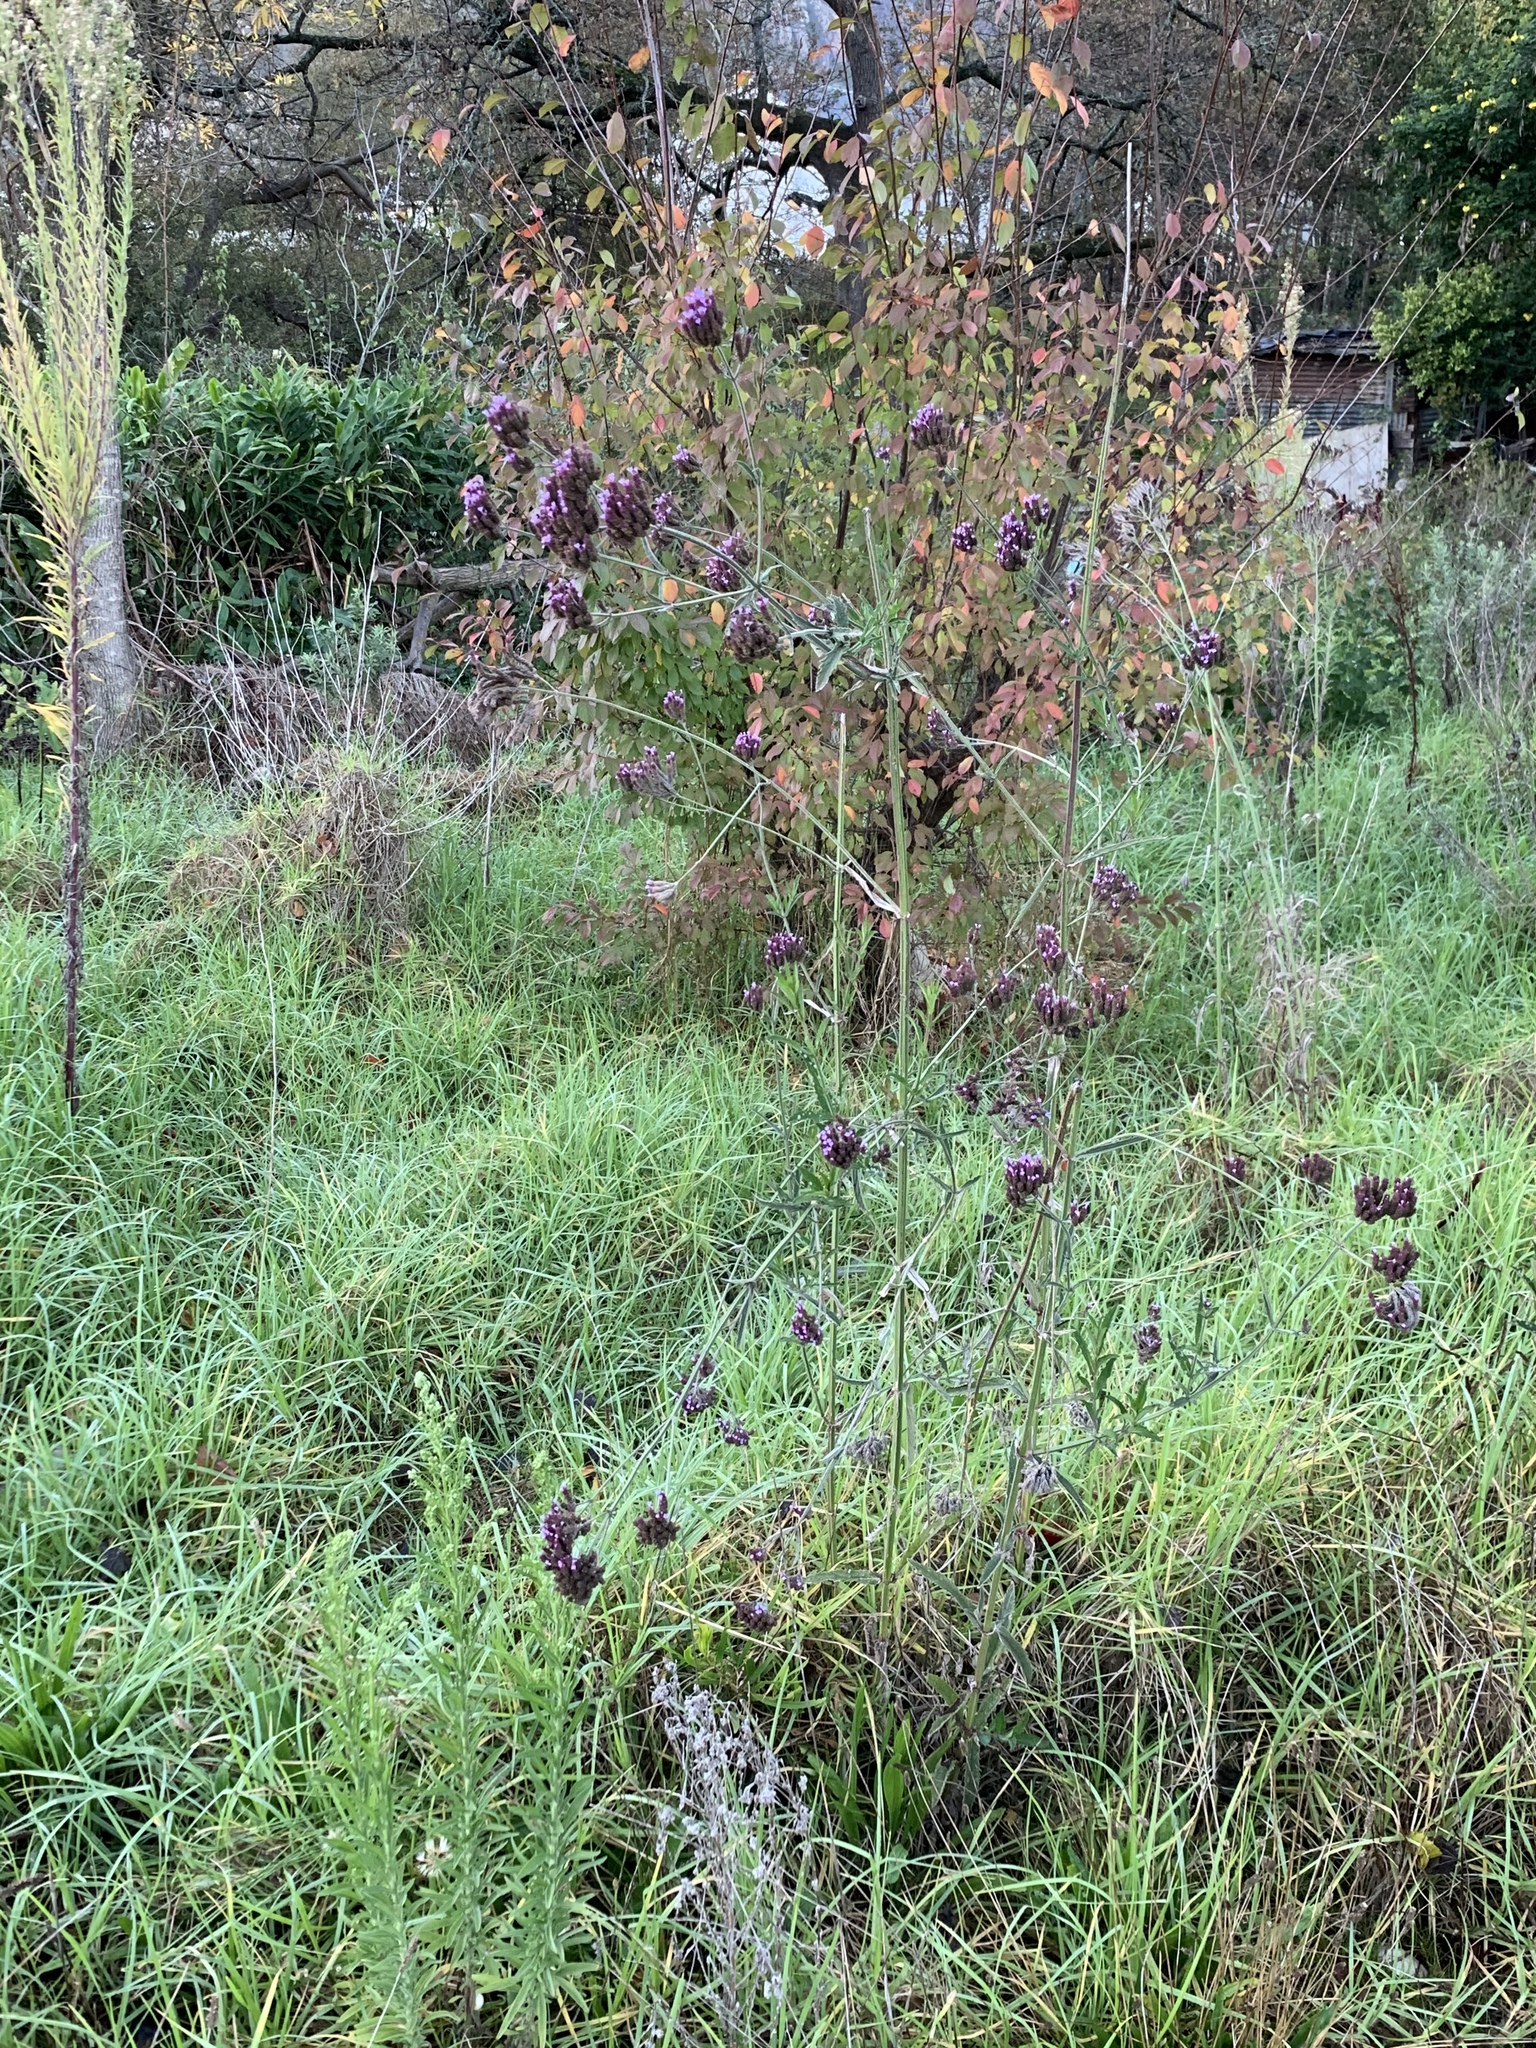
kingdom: Plantae
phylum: Tracheophyta
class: Magnoliopsida
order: Lamiales
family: Verbenaceae
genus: Verbena
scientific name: Verbena bonariensis
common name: Purpletop vervain
